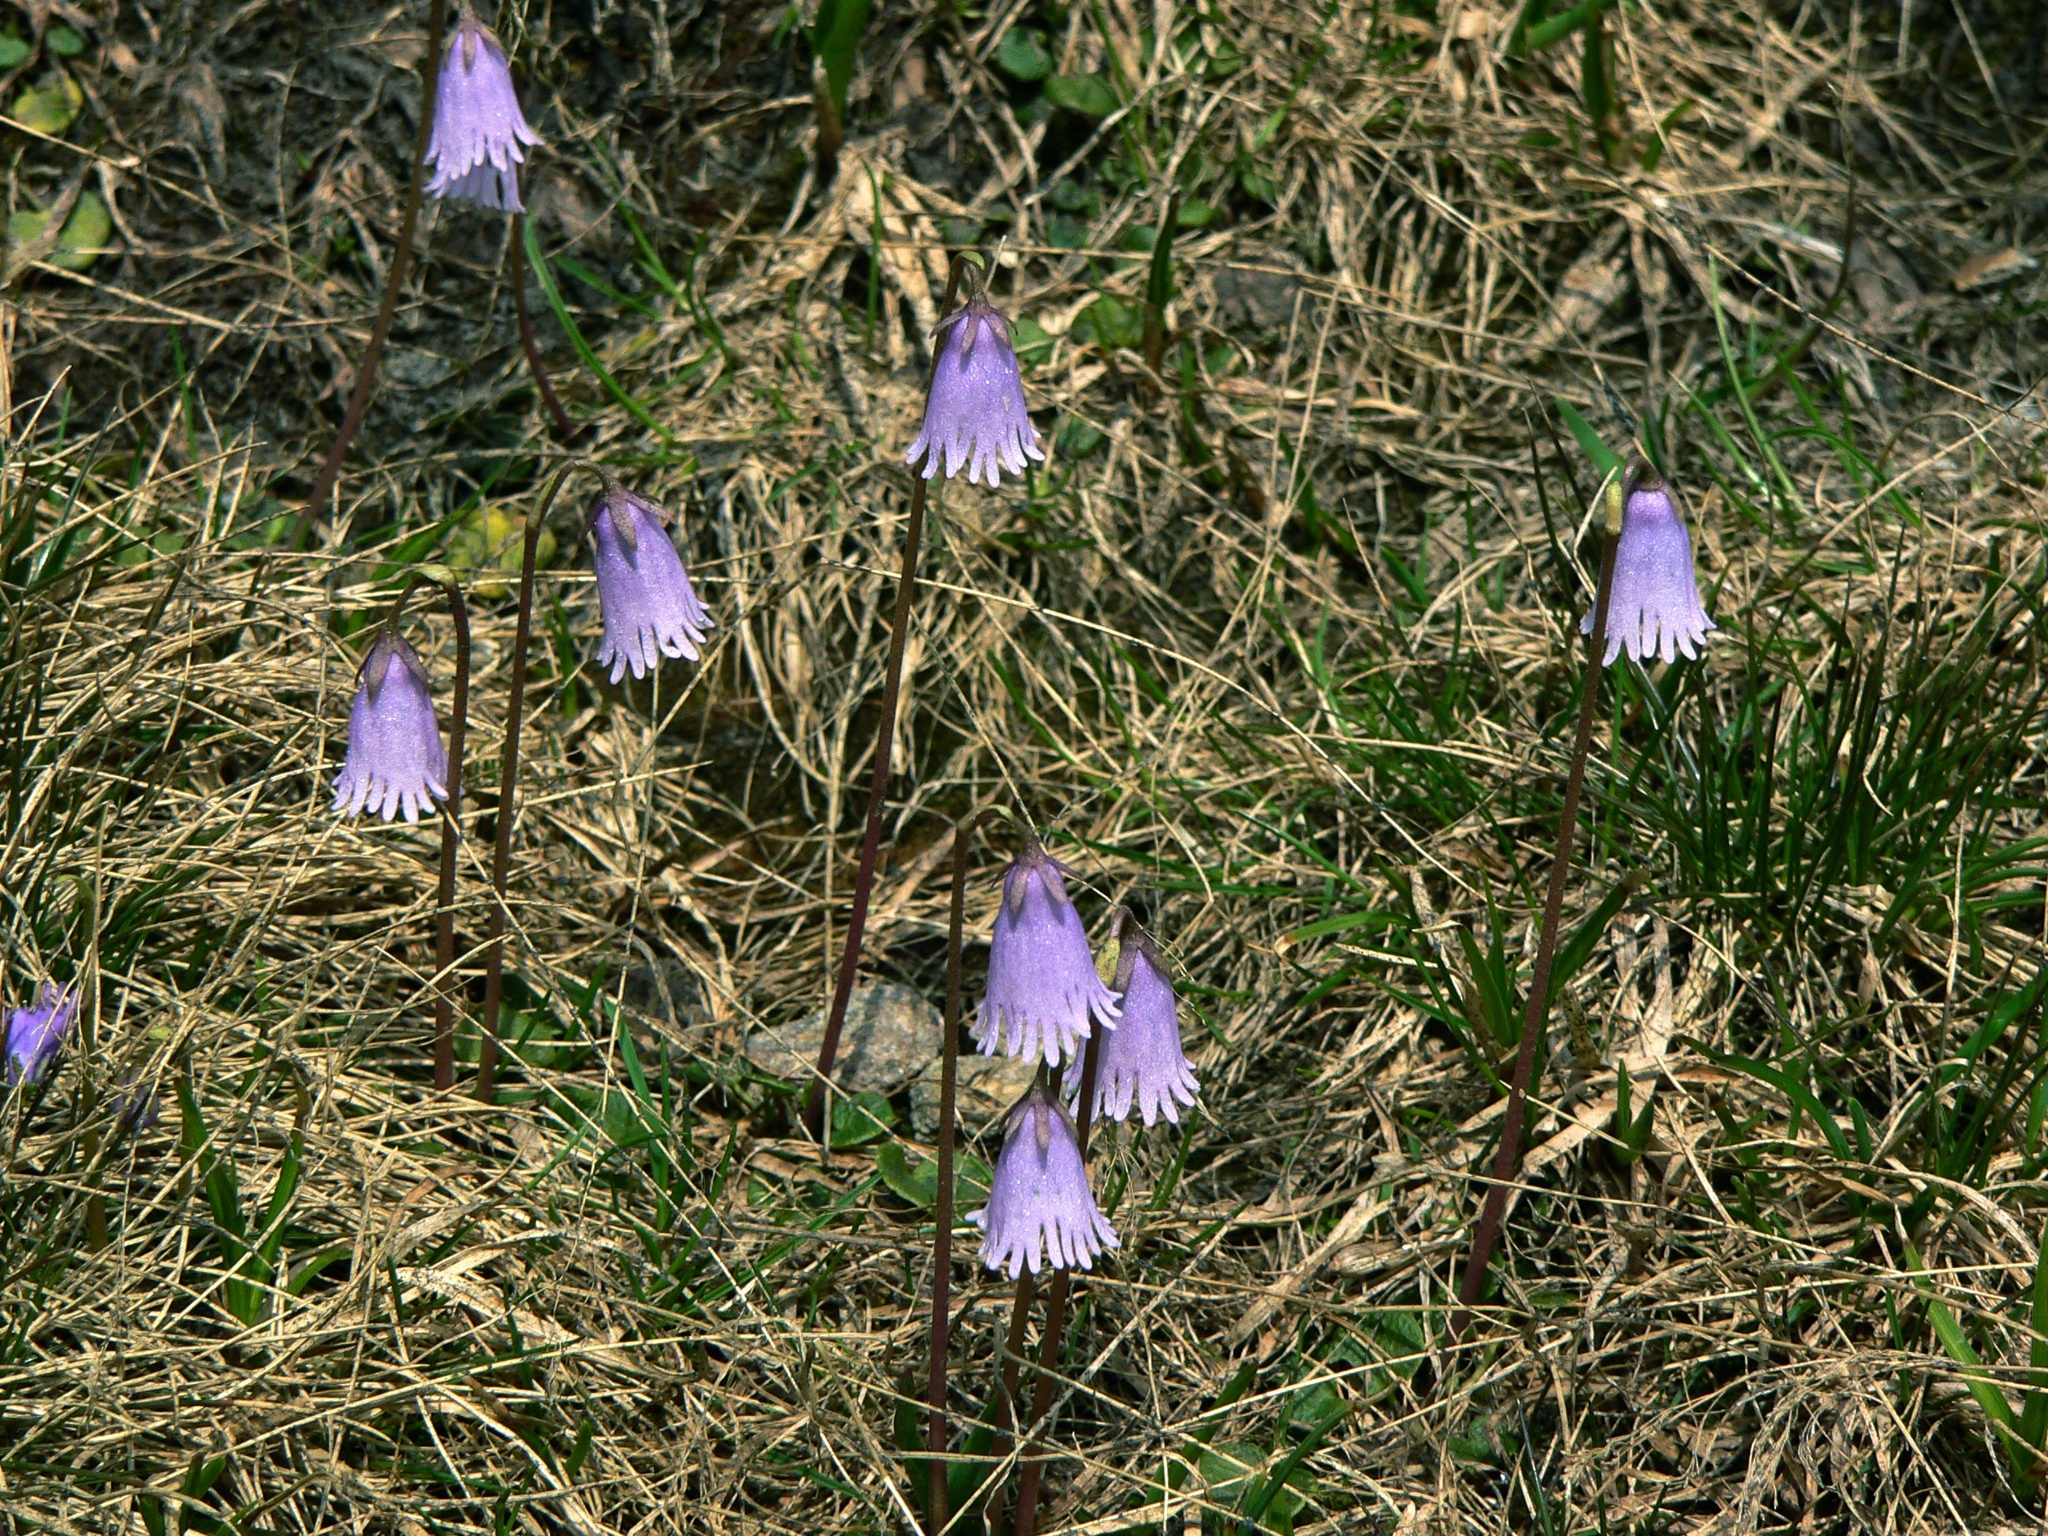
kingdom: Plantae
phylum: Tracheophyta
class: Magnoliopsida
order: Ericales
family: Primulaceae
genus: Soldanella
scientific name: Soldanella alpicola
